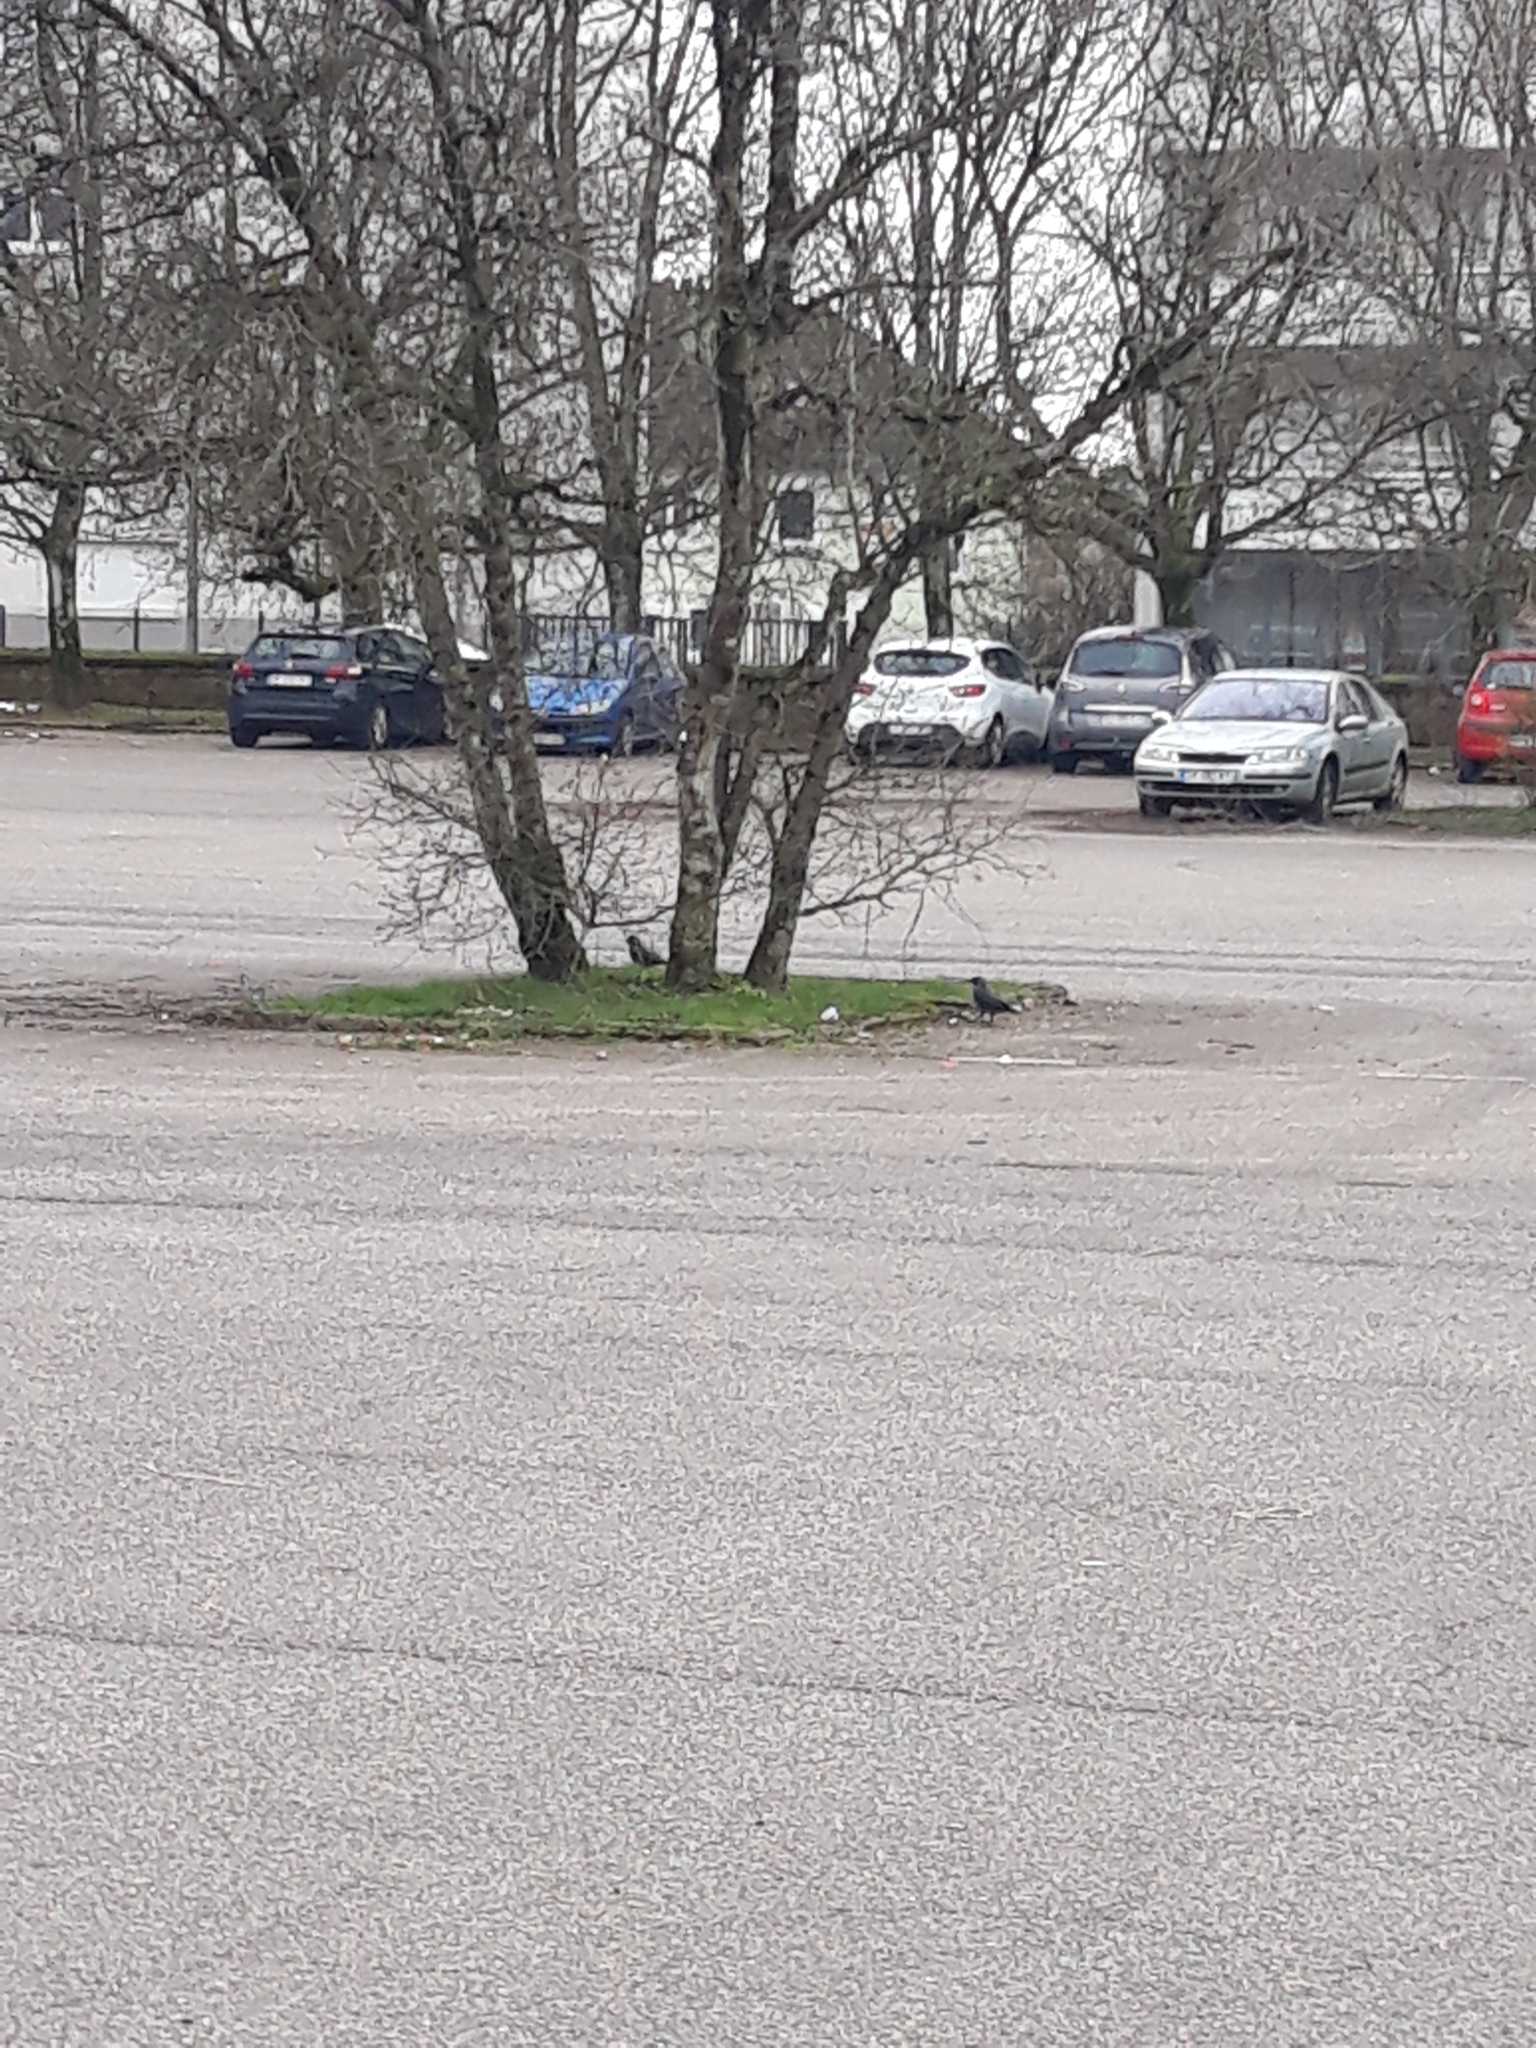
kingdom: Animalia
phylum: Chordata
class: Aves
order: Passeriformes
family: Corvidae
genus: Coloeus
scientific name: Coloeus monedula
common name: Western jackdaw
